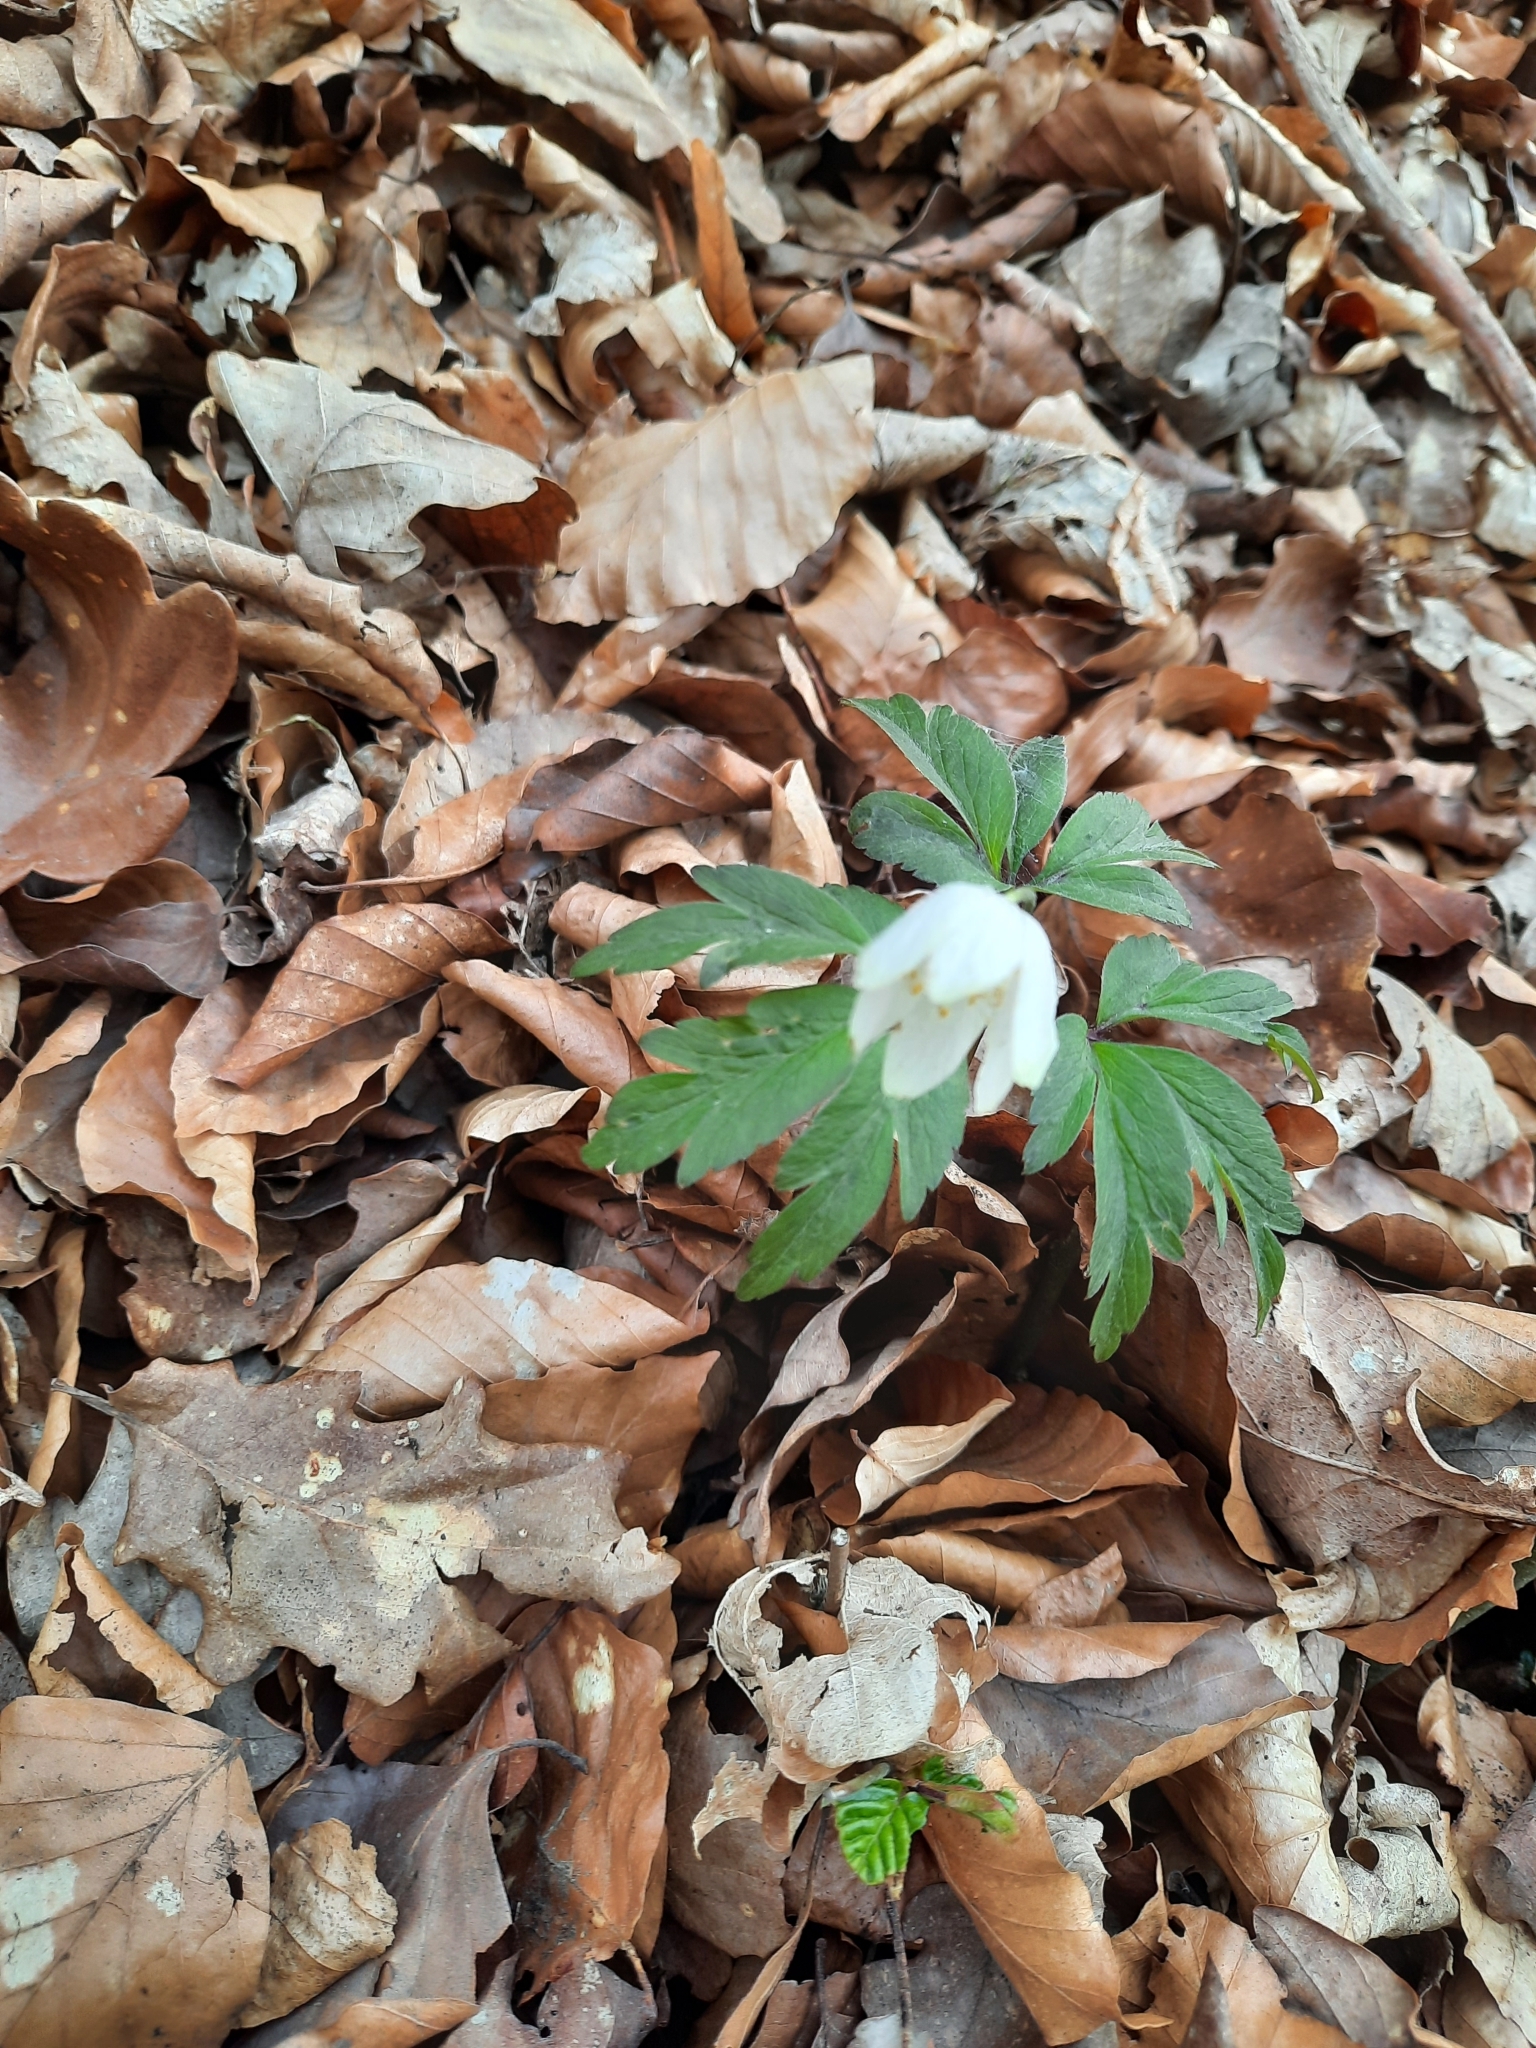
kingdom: Plantae
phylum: Tracheophyta
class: Magnoliopsida
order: Ranunculales
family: Ranunculaceae
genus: Anemone
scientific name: Anemone nemorosa
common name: Wood anemone
